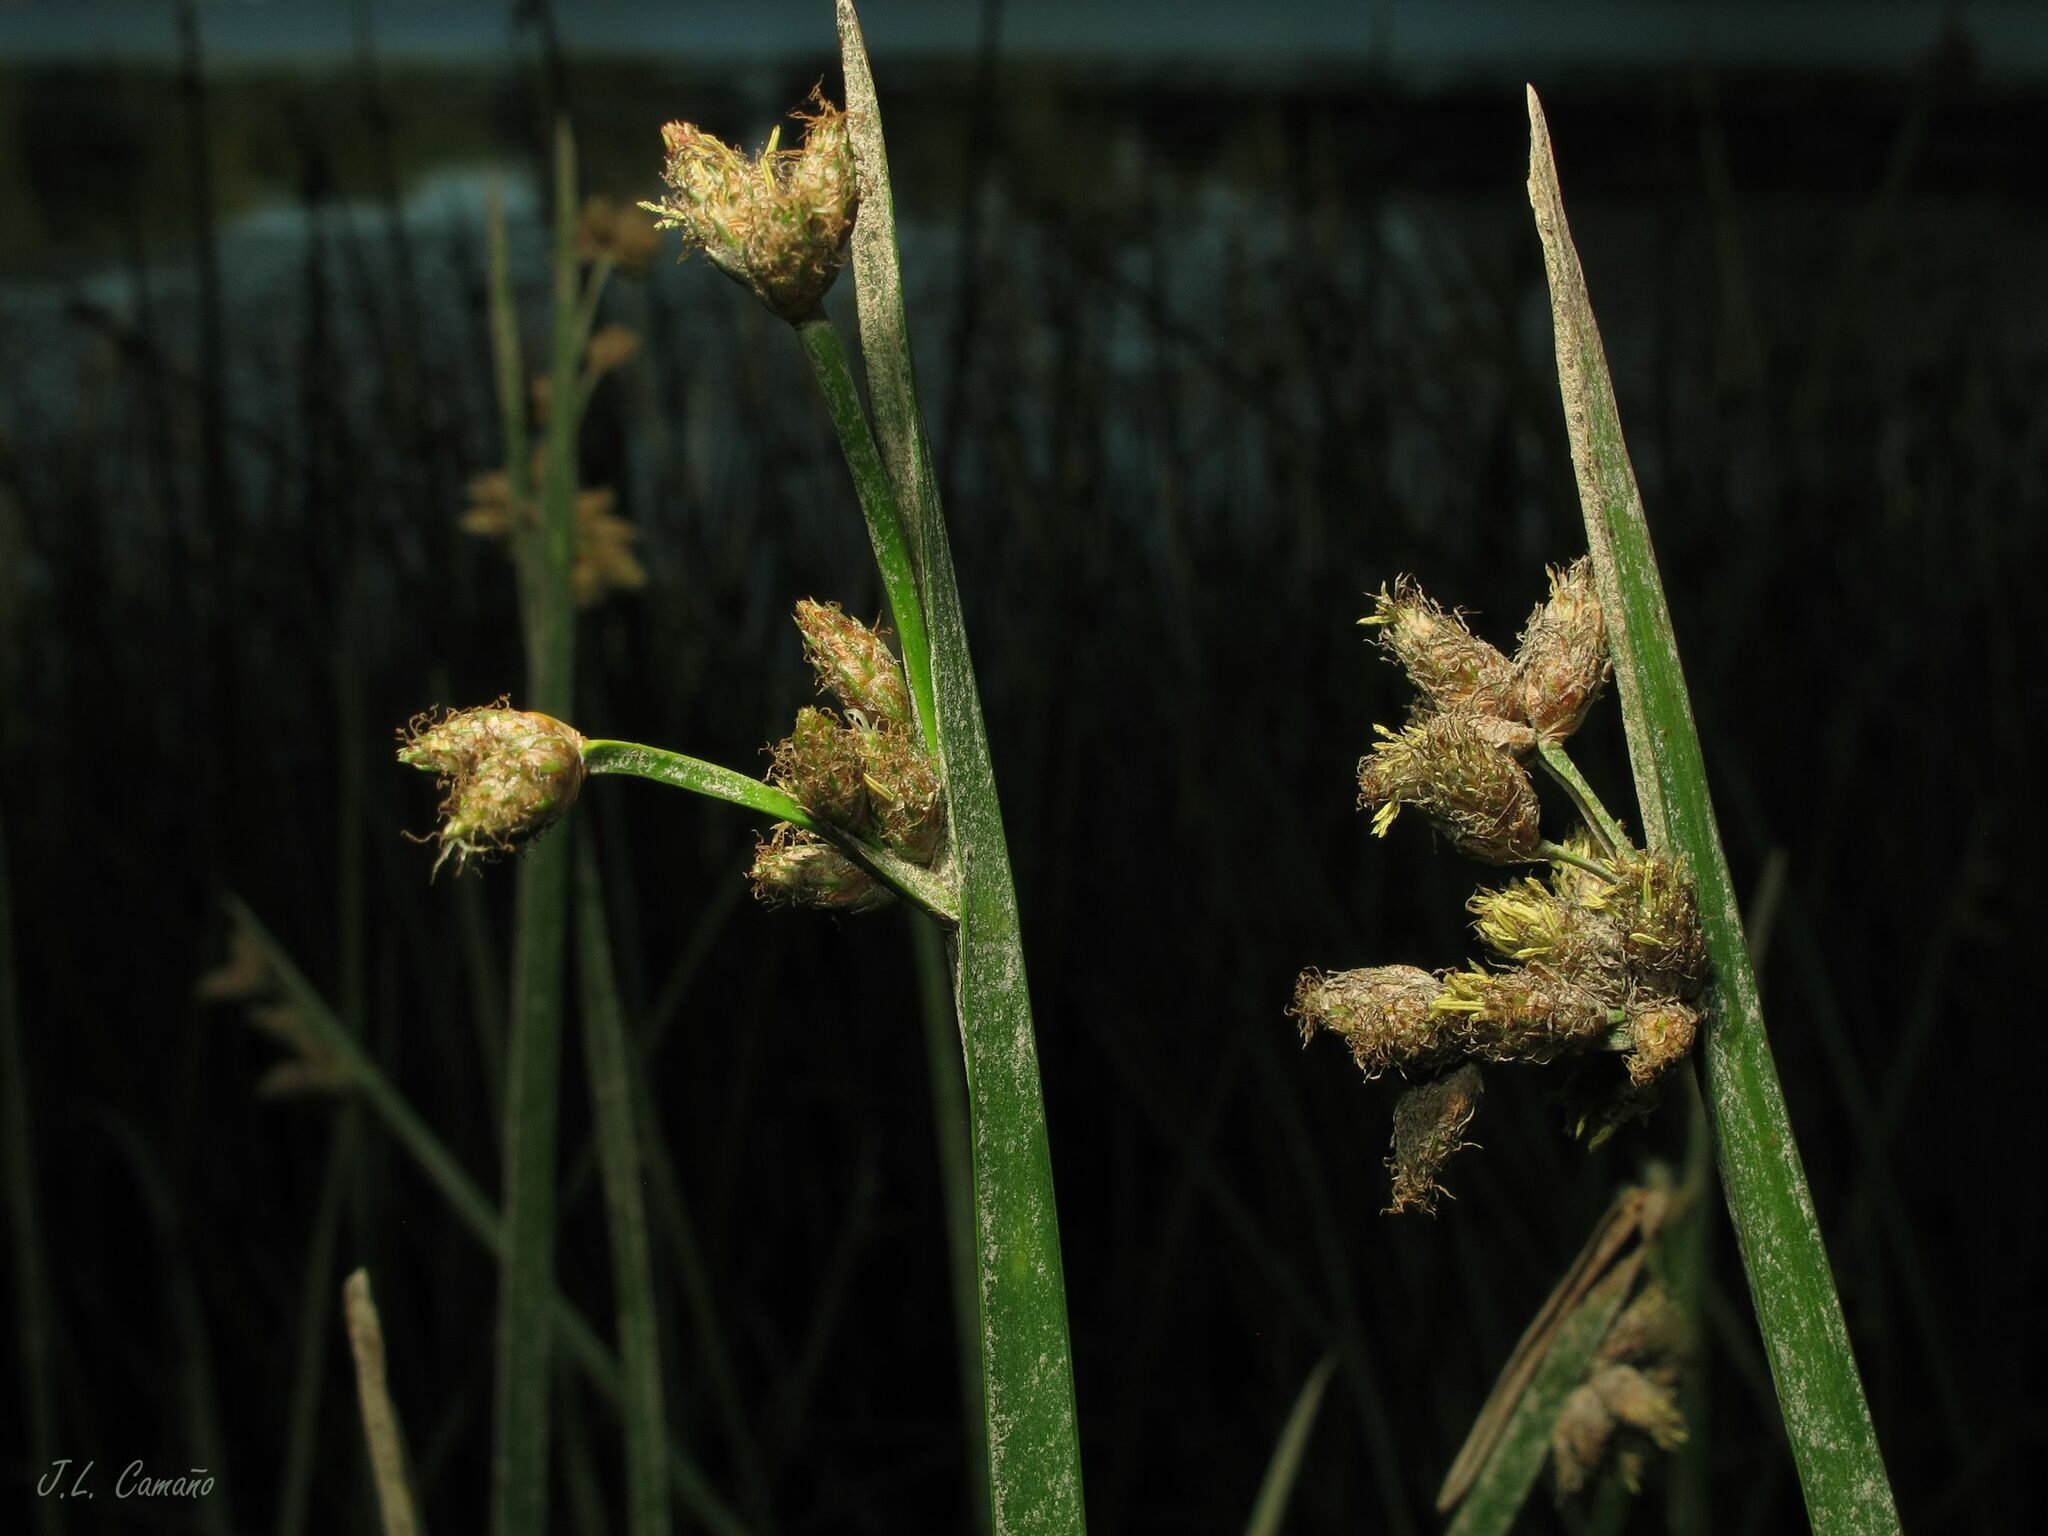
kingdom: Plantae
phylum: Tracheophyta
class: Liliopsida
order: Poales
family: Cyperaceae
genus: Schoenoplectus
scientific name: Schoenoplectus triqueter
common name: Triangular club-rush
